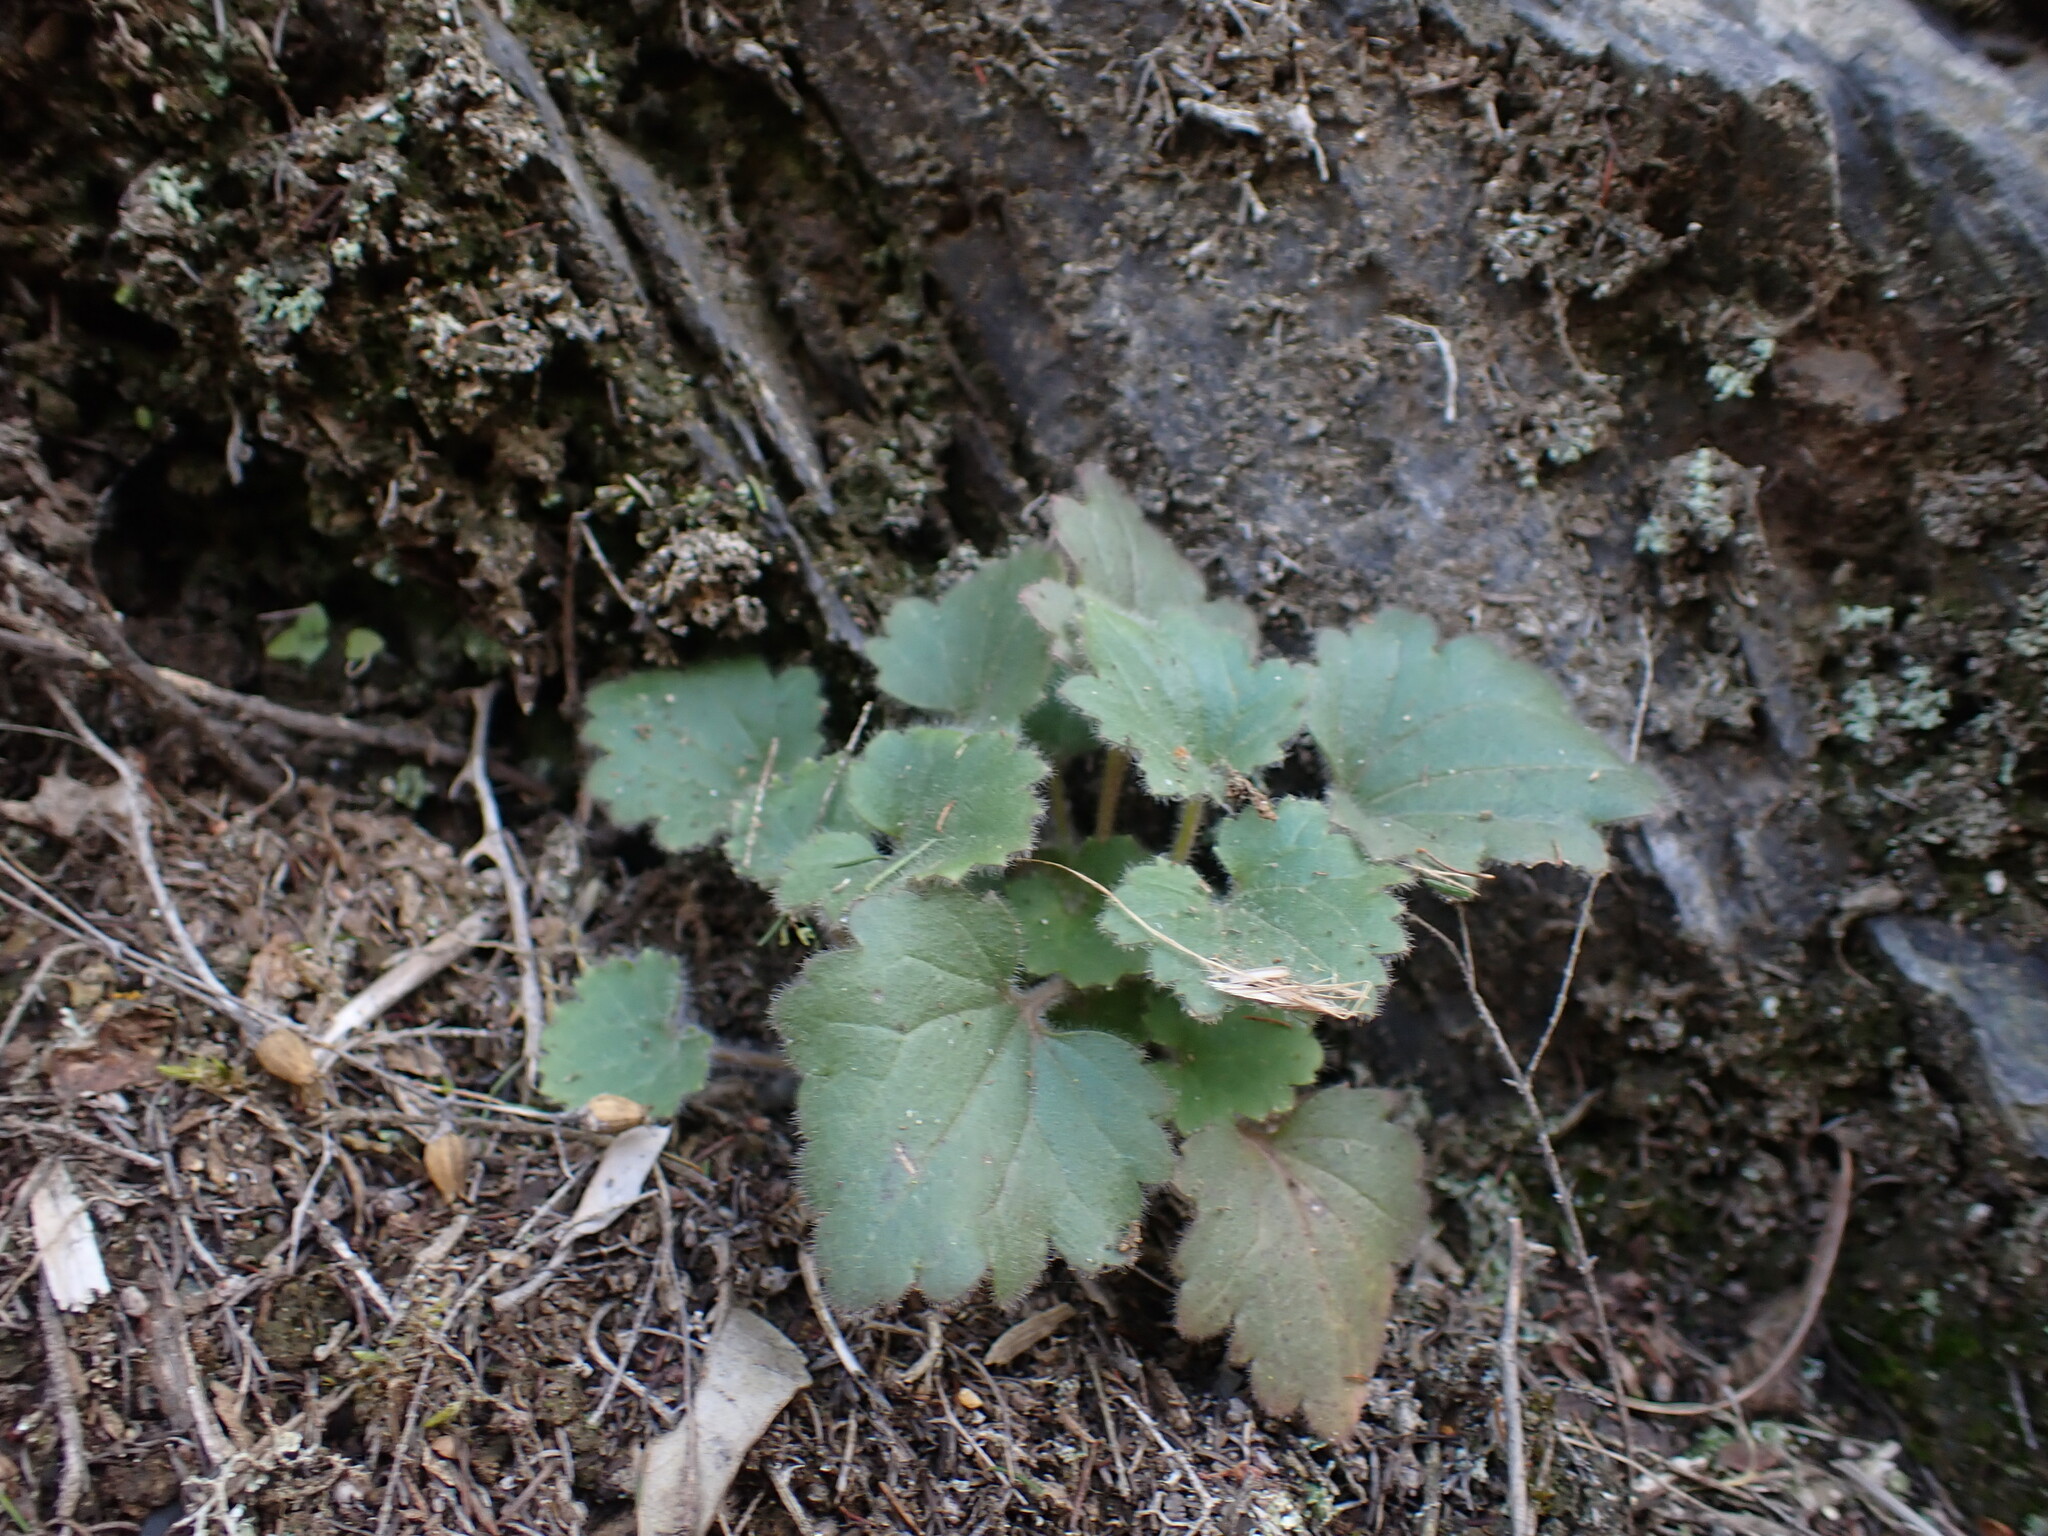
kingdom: Plantae
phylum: Tracheophyta
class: Magnoliopsida
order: Lamiales
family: Plantaginaceae
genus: Asarina
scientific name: Asarina procumbens
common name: Trailing snapdragon
